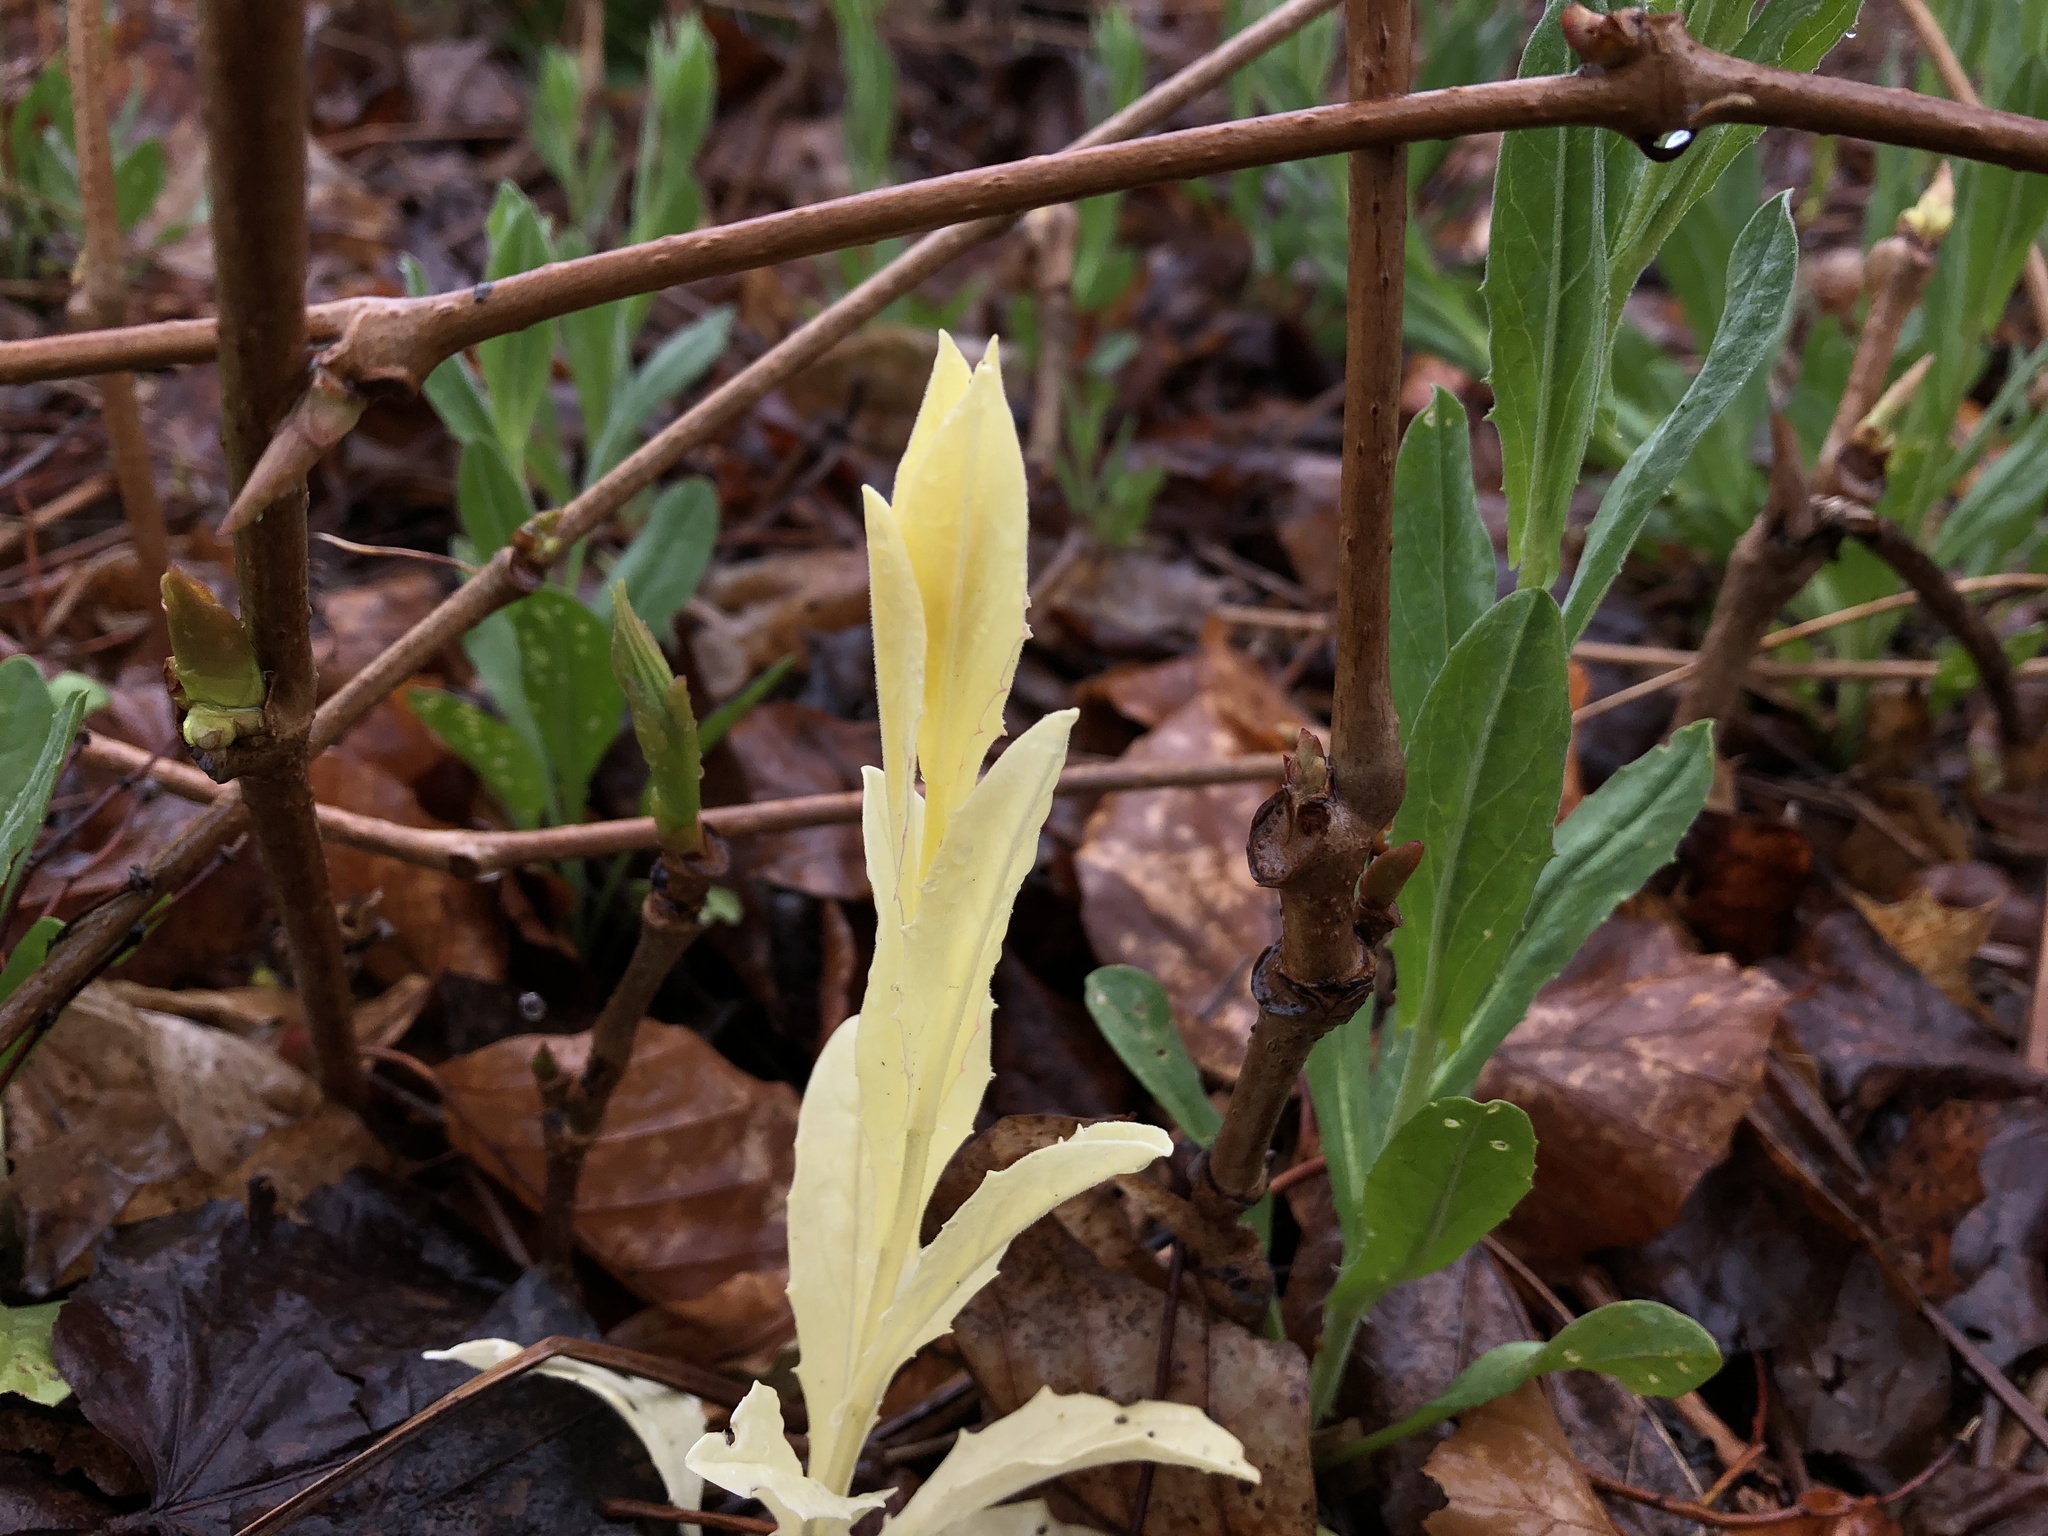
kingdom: Plantae
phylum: Tracheophyta
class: Magnoliopsida
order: Brassicales
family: Brassicaceae
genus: Lepidium
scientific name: Lepidium draba
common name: Hoary cress
